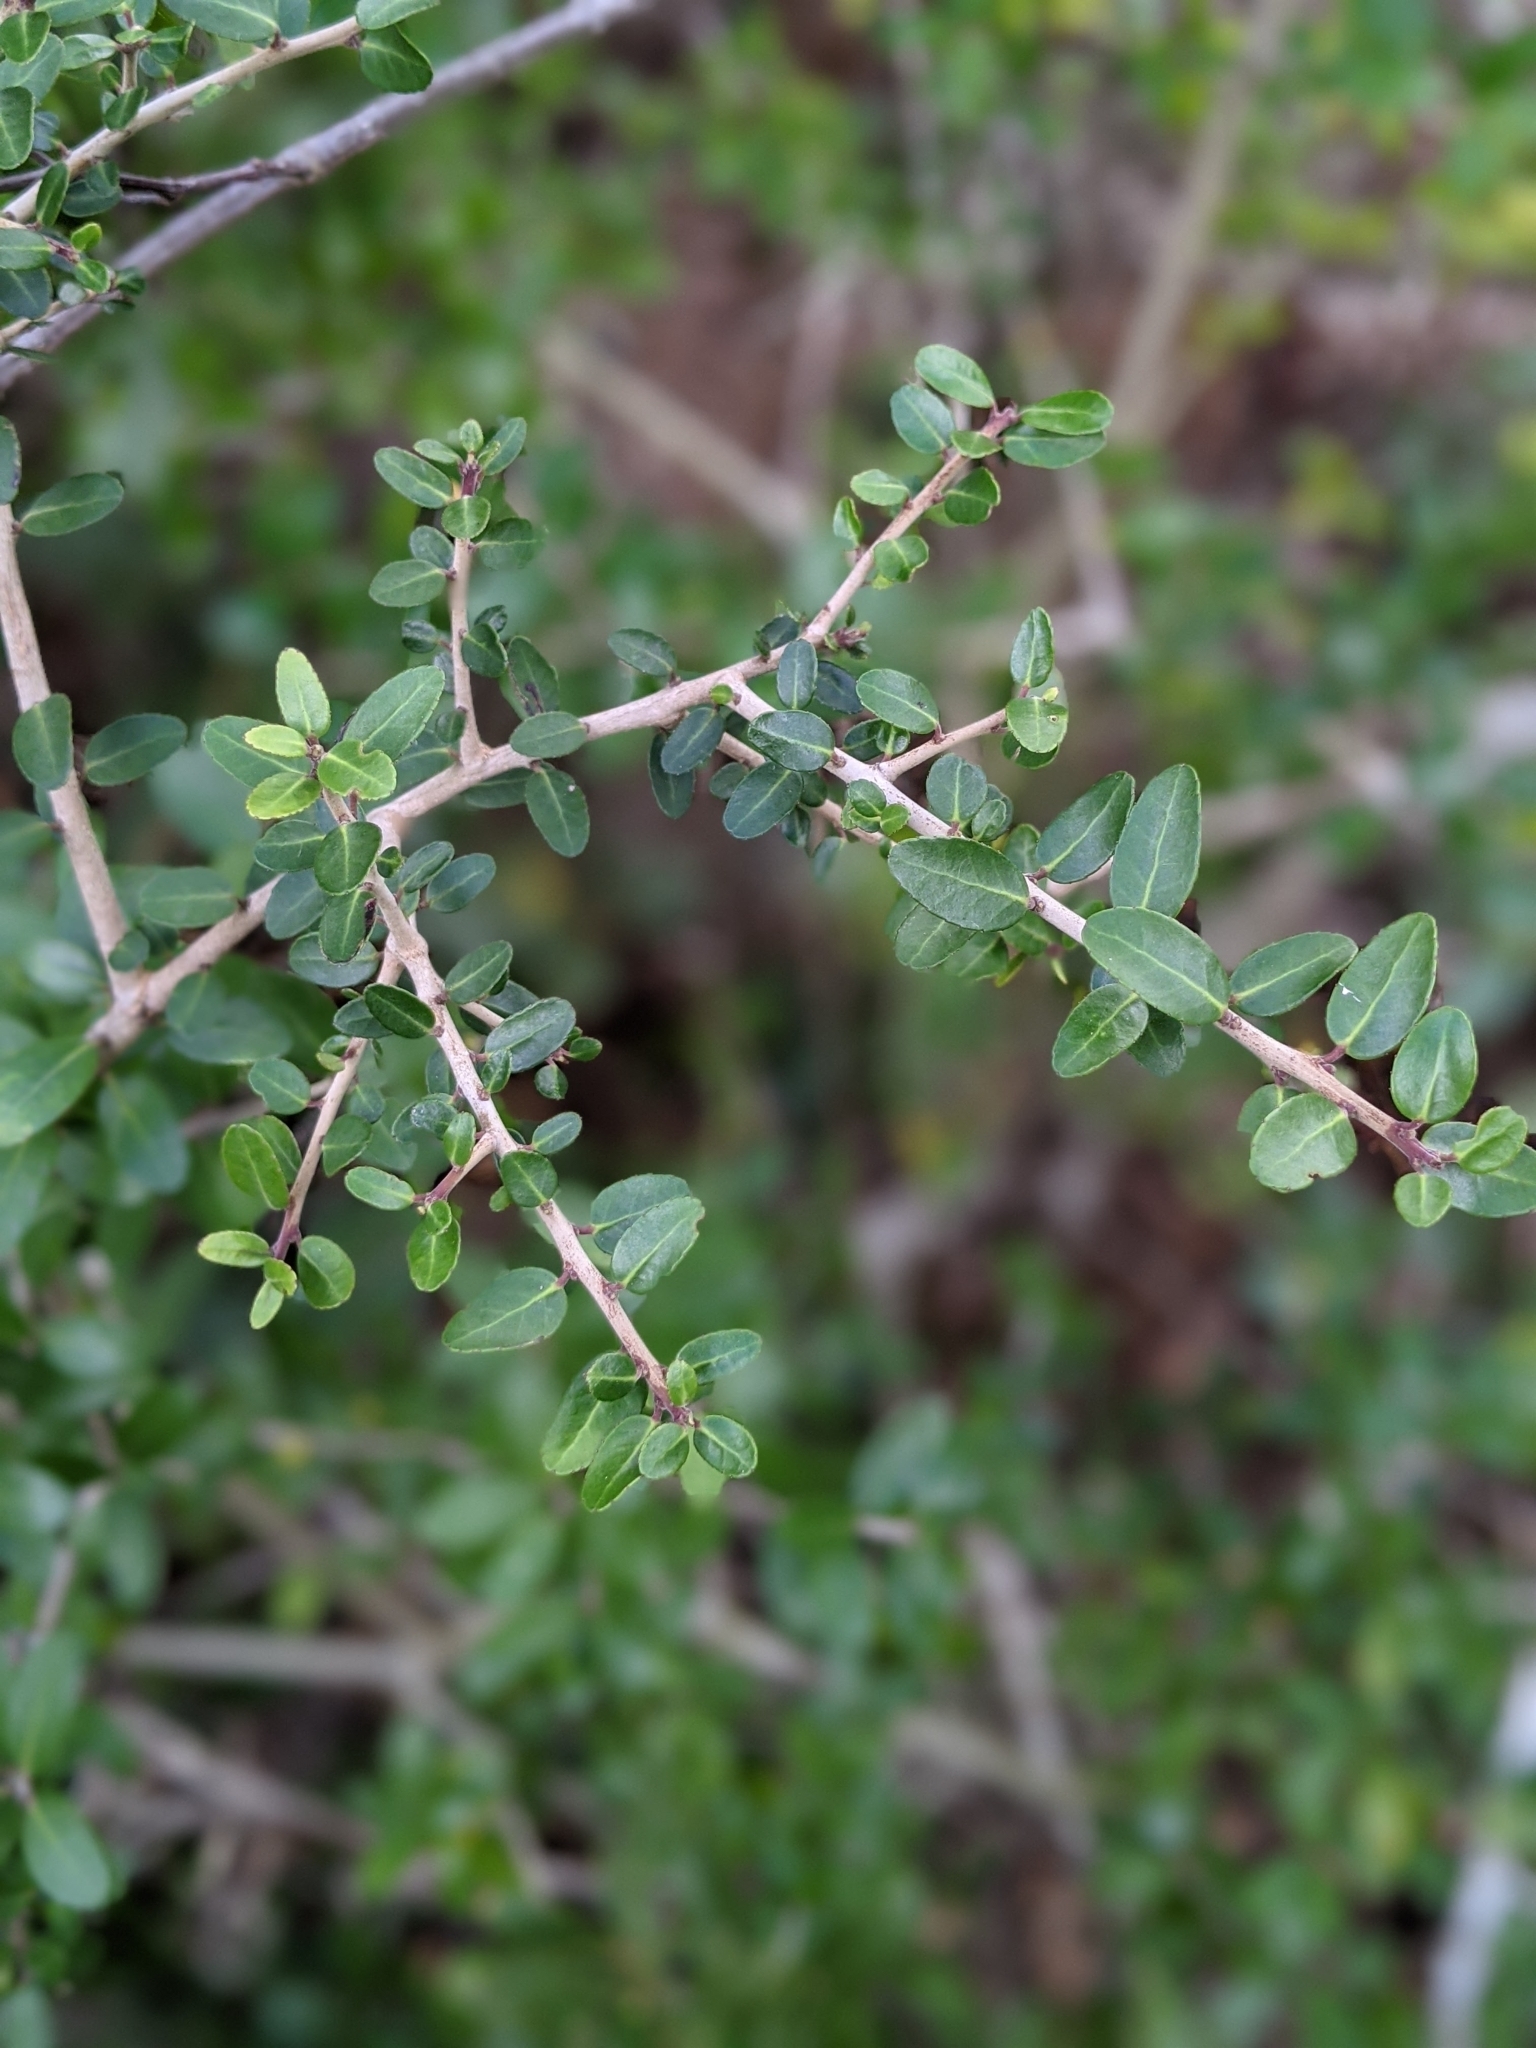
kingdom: Plantae
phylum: Tracheophyta
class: Magnoliopsida
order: Aquifoliales
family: Aquifoliaceae
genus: Ilex
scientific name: Ilex vomitoria
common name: Yaupon holly
